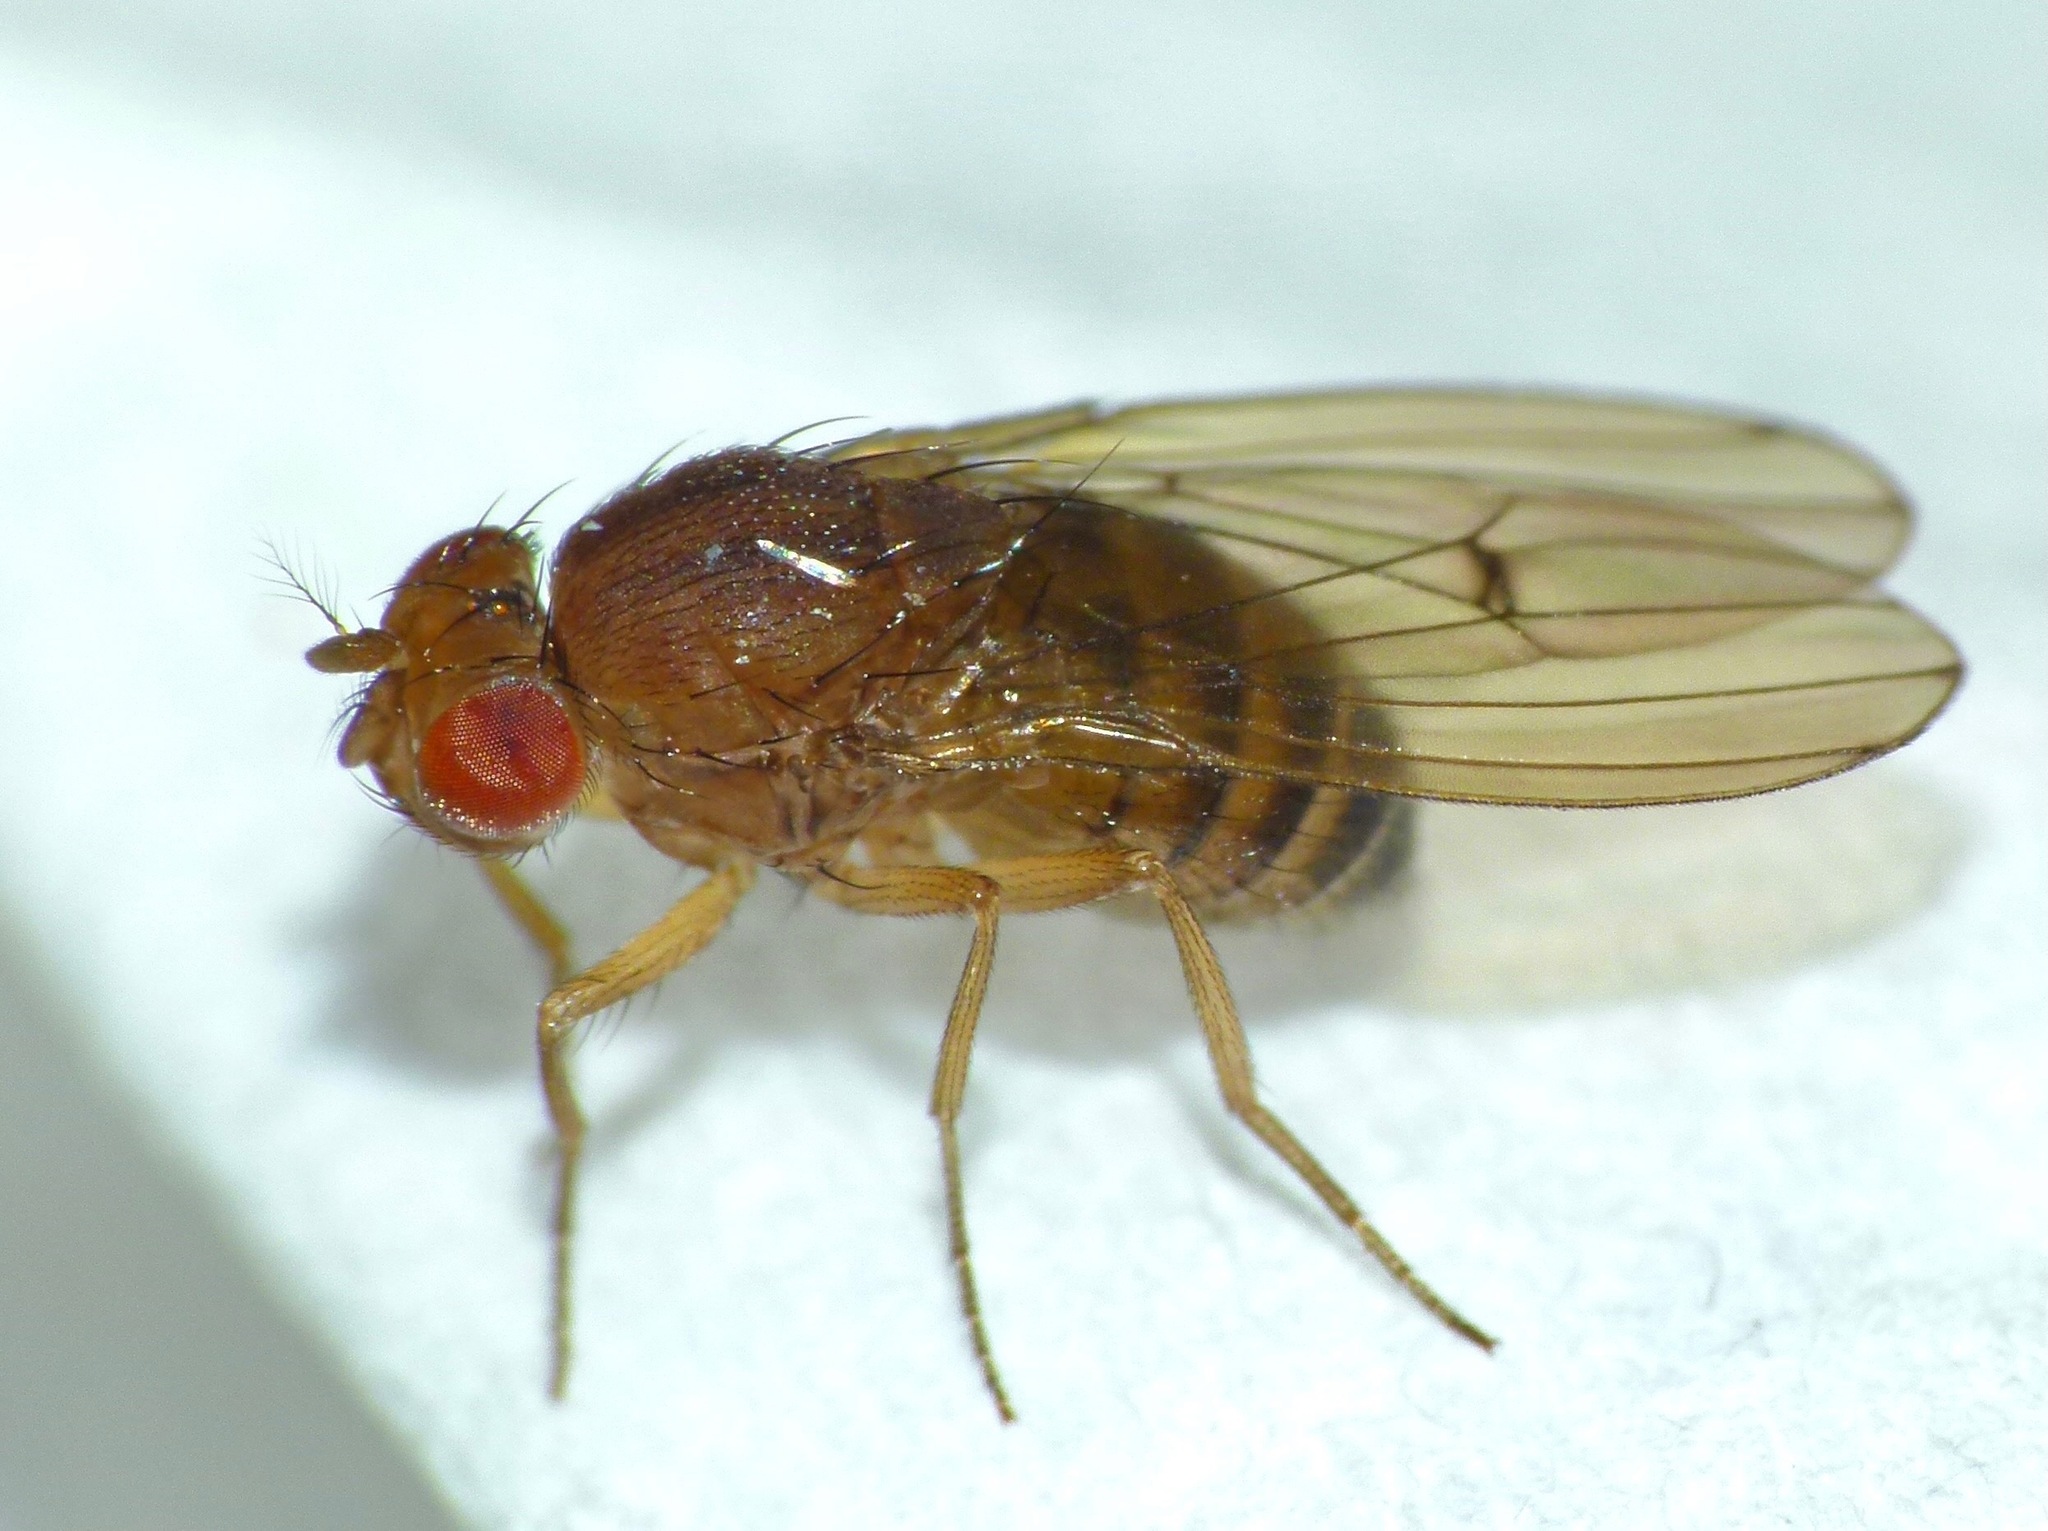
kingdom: Animalia
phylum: Arthropoda
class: Insecta
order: Diptera
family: Drosophilidae
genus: Drosophila
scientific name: Drosophila immigrans
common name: Pomace fly
